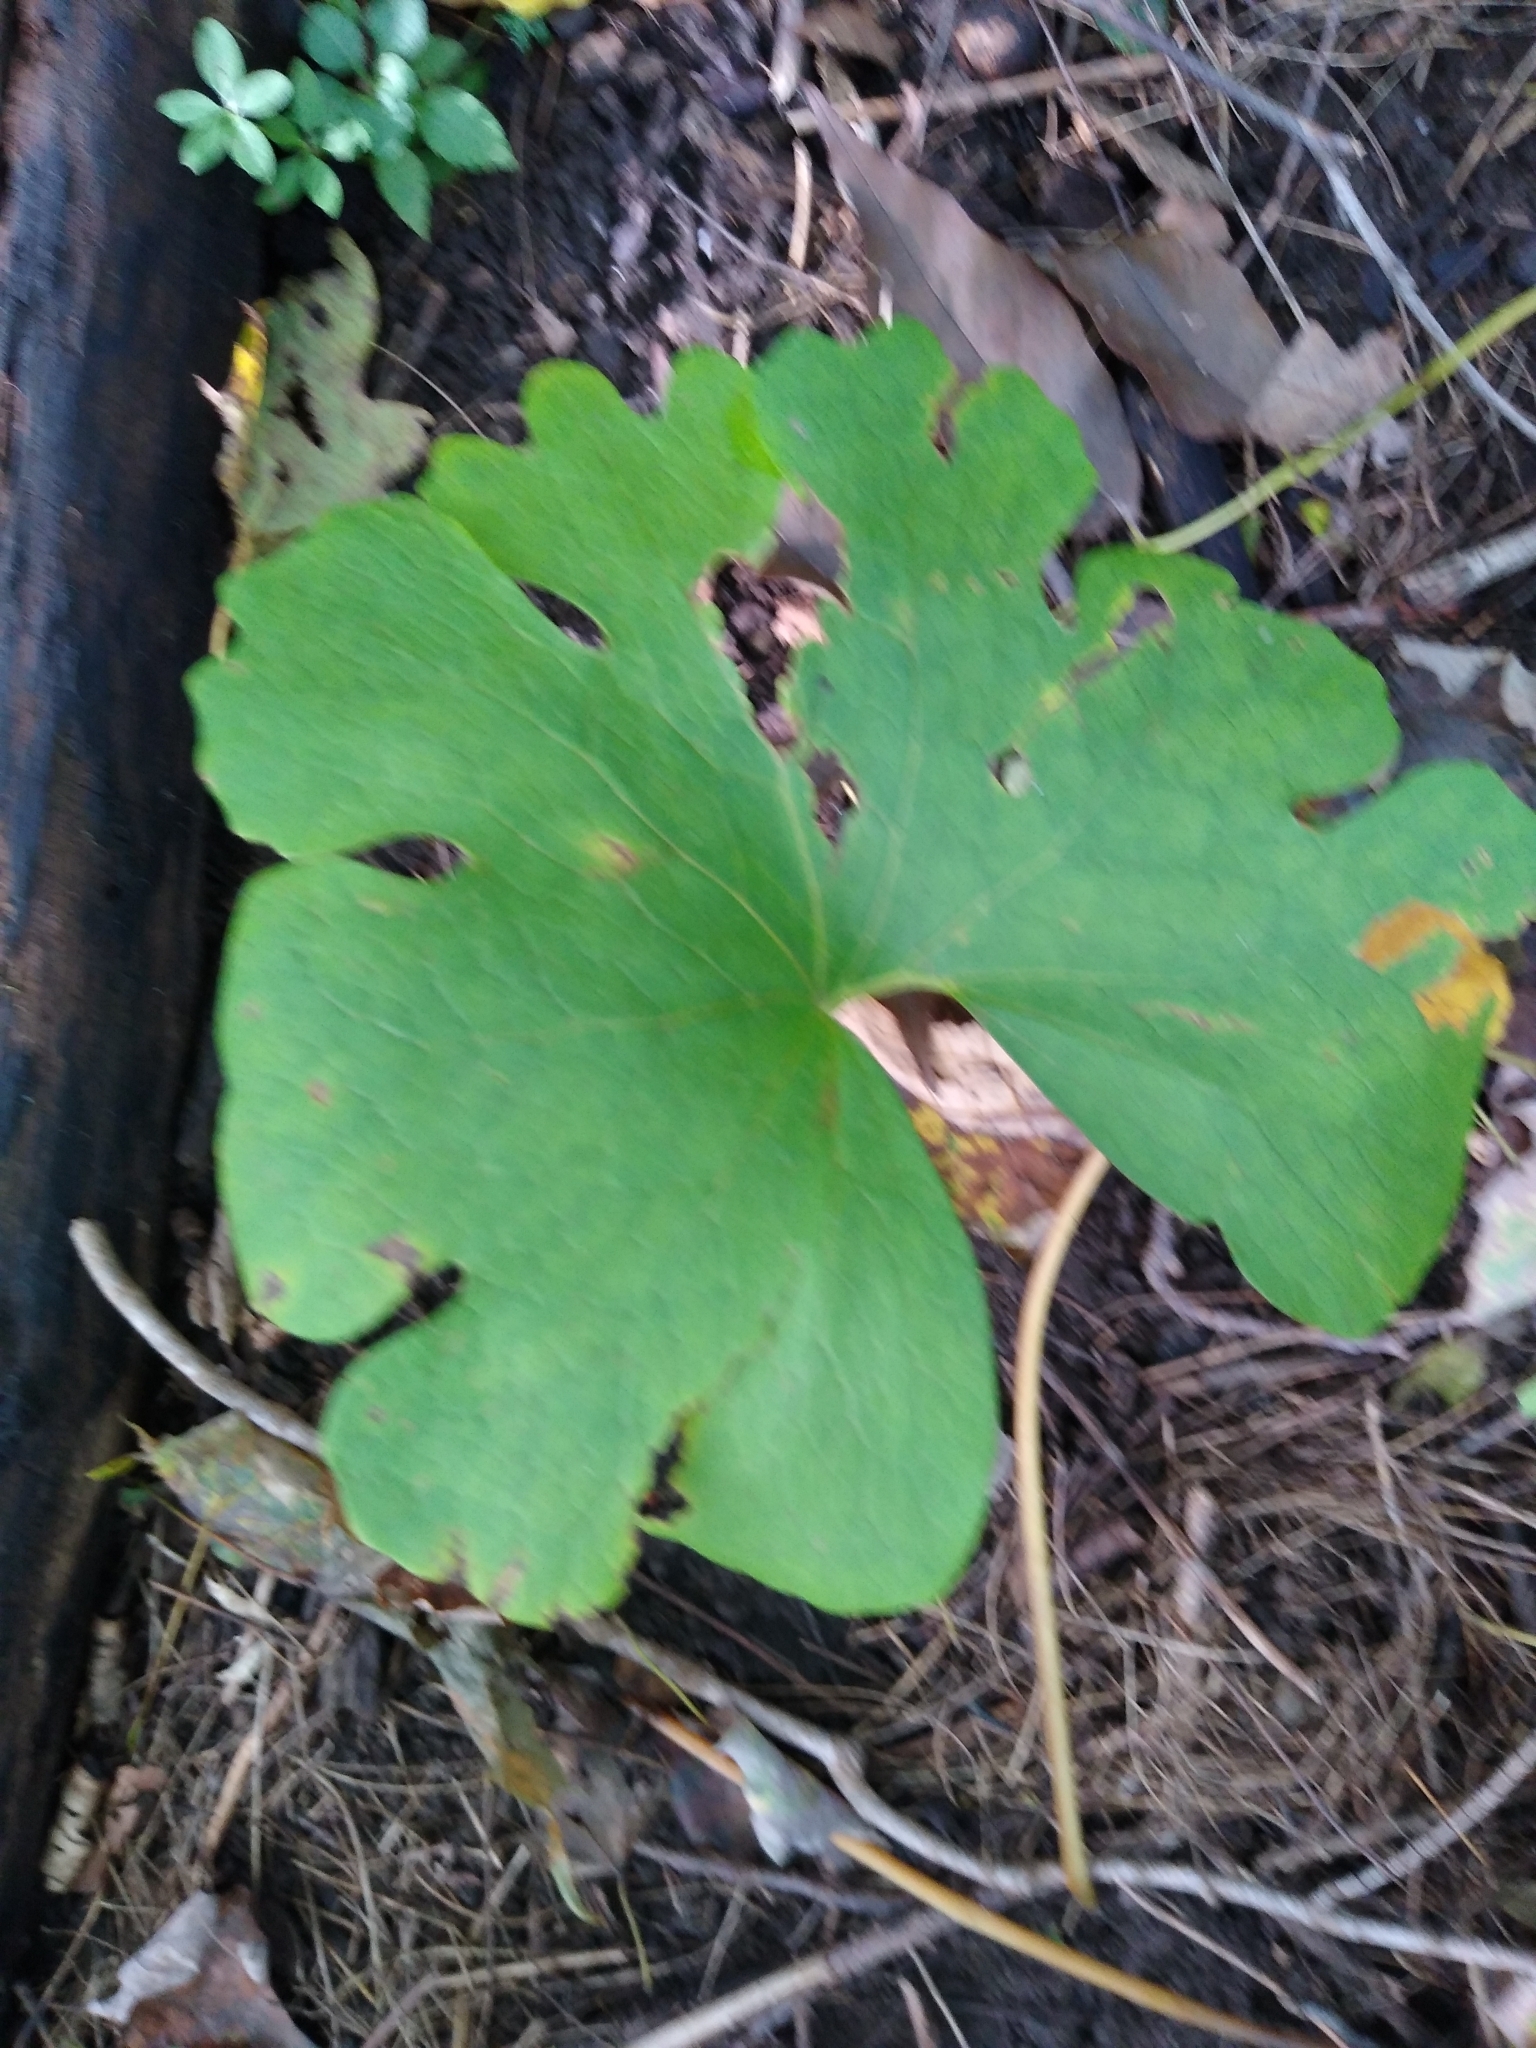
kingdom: Plantae
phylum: Tracheophyta
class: Magnoliopsida
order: Ranunculales
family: Papaveraceae
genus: Sanguinaria
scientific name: Sanguinaria canadensis
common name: Bloodroot
